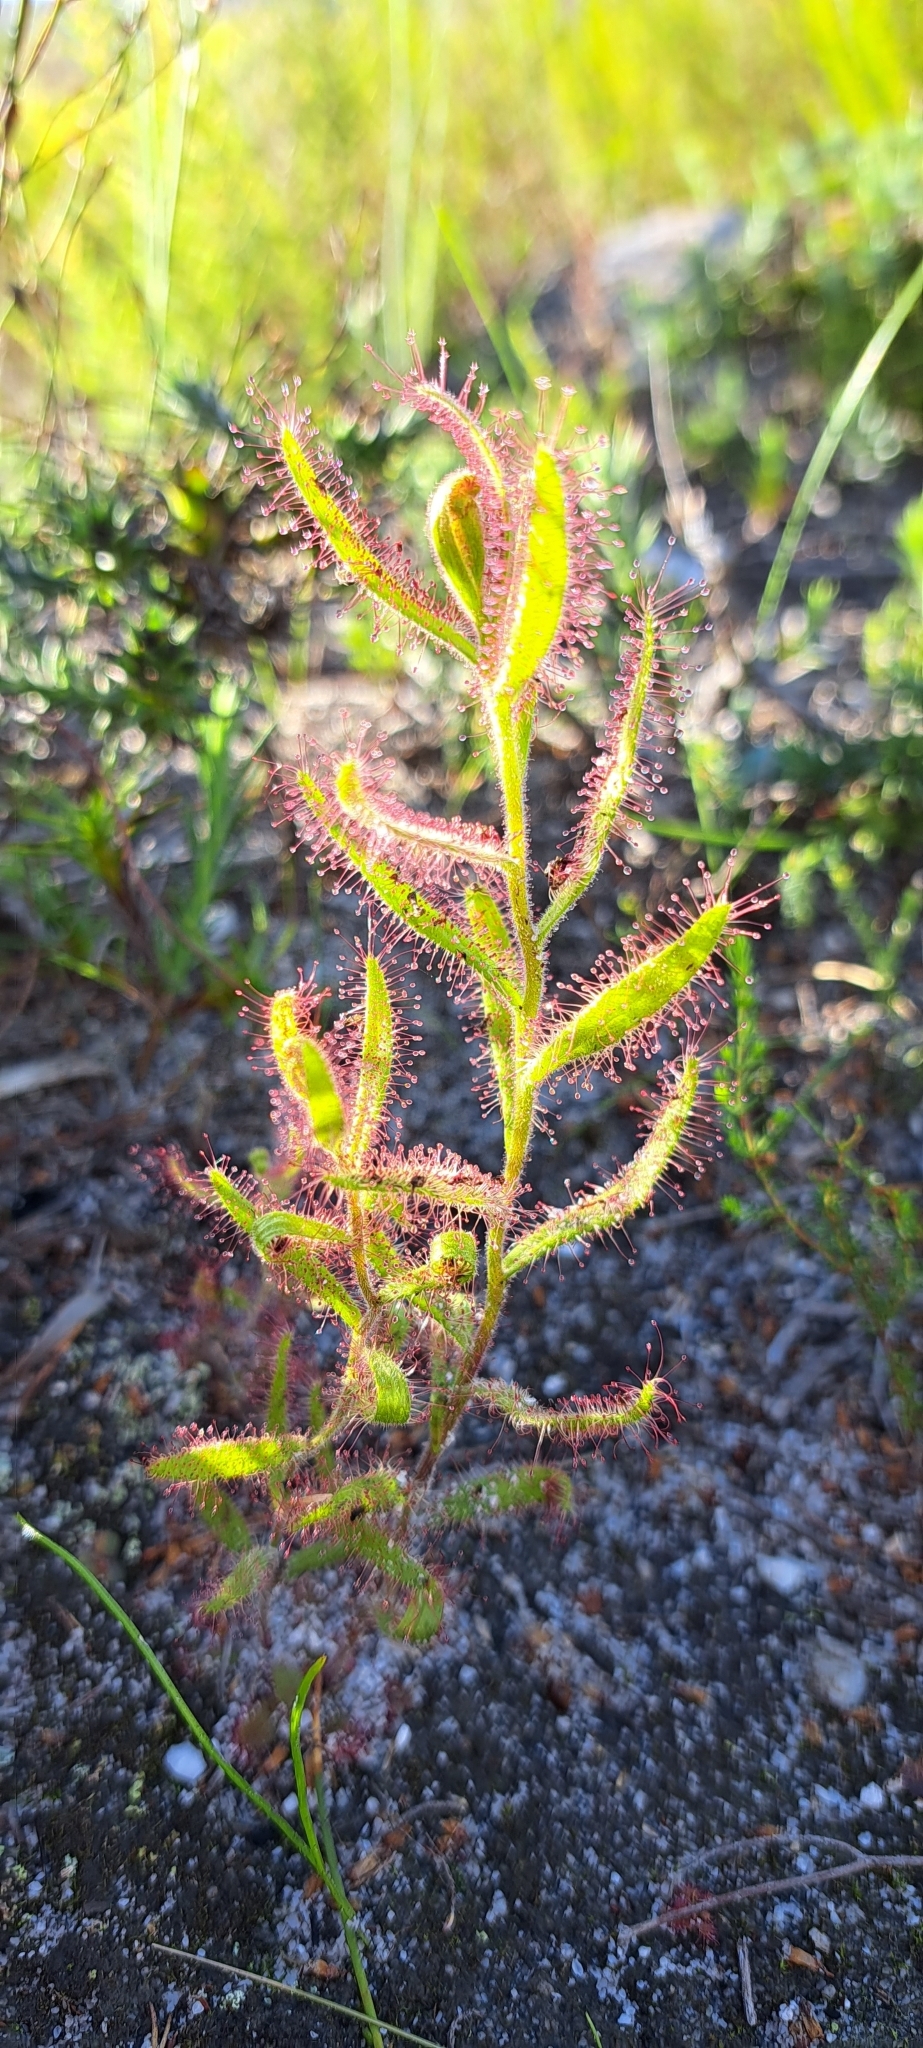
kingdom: Plantae
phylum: Tracheophyta
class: Magnoliopsida
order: Caryophyllales
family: Droseraceae
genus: Drosera
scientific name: Drosera cistiflora
